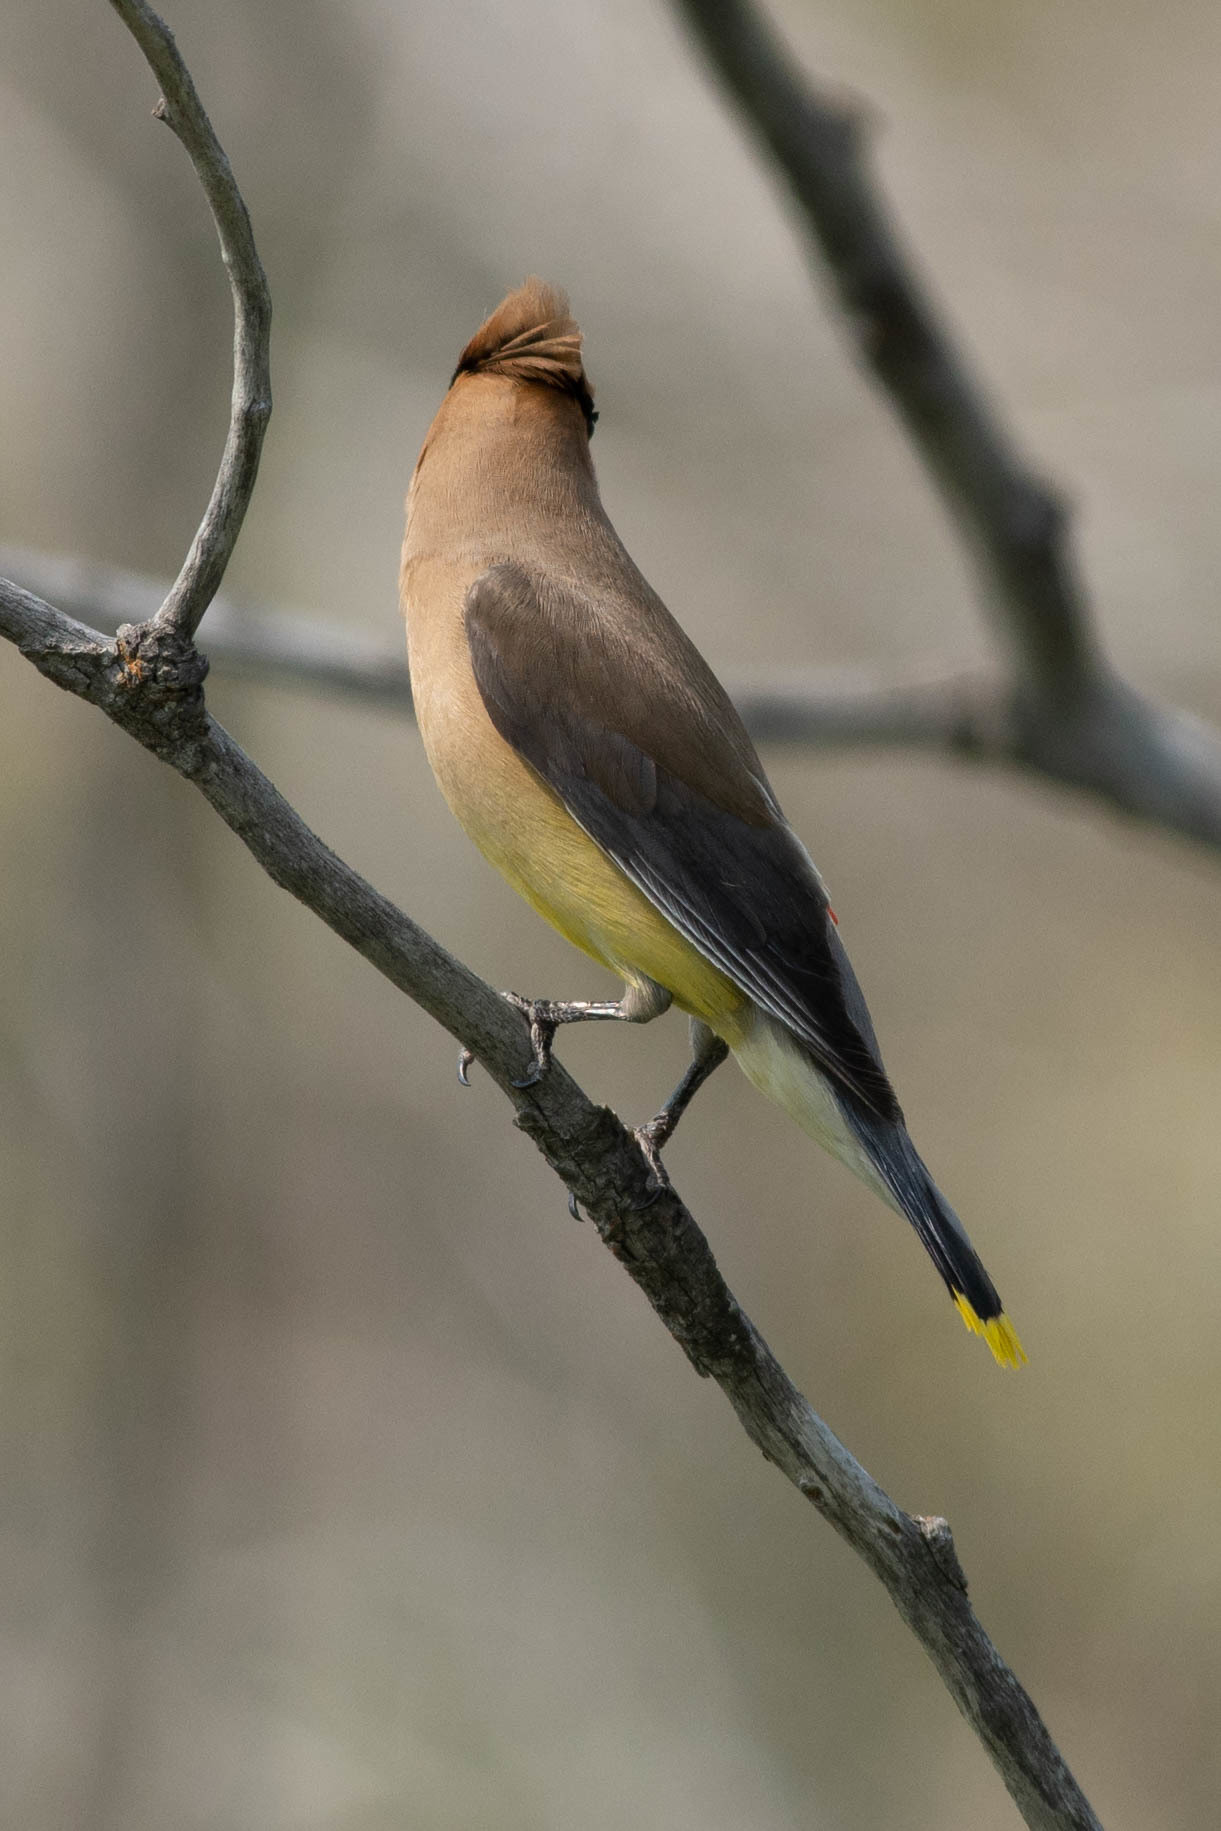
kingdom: Animalia
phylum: Chordata
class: Aves
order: Passeriformes
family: Bombycillidae
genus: Bombycilla
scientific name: Bombycilla cedrorum
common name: Cedar waxwing
